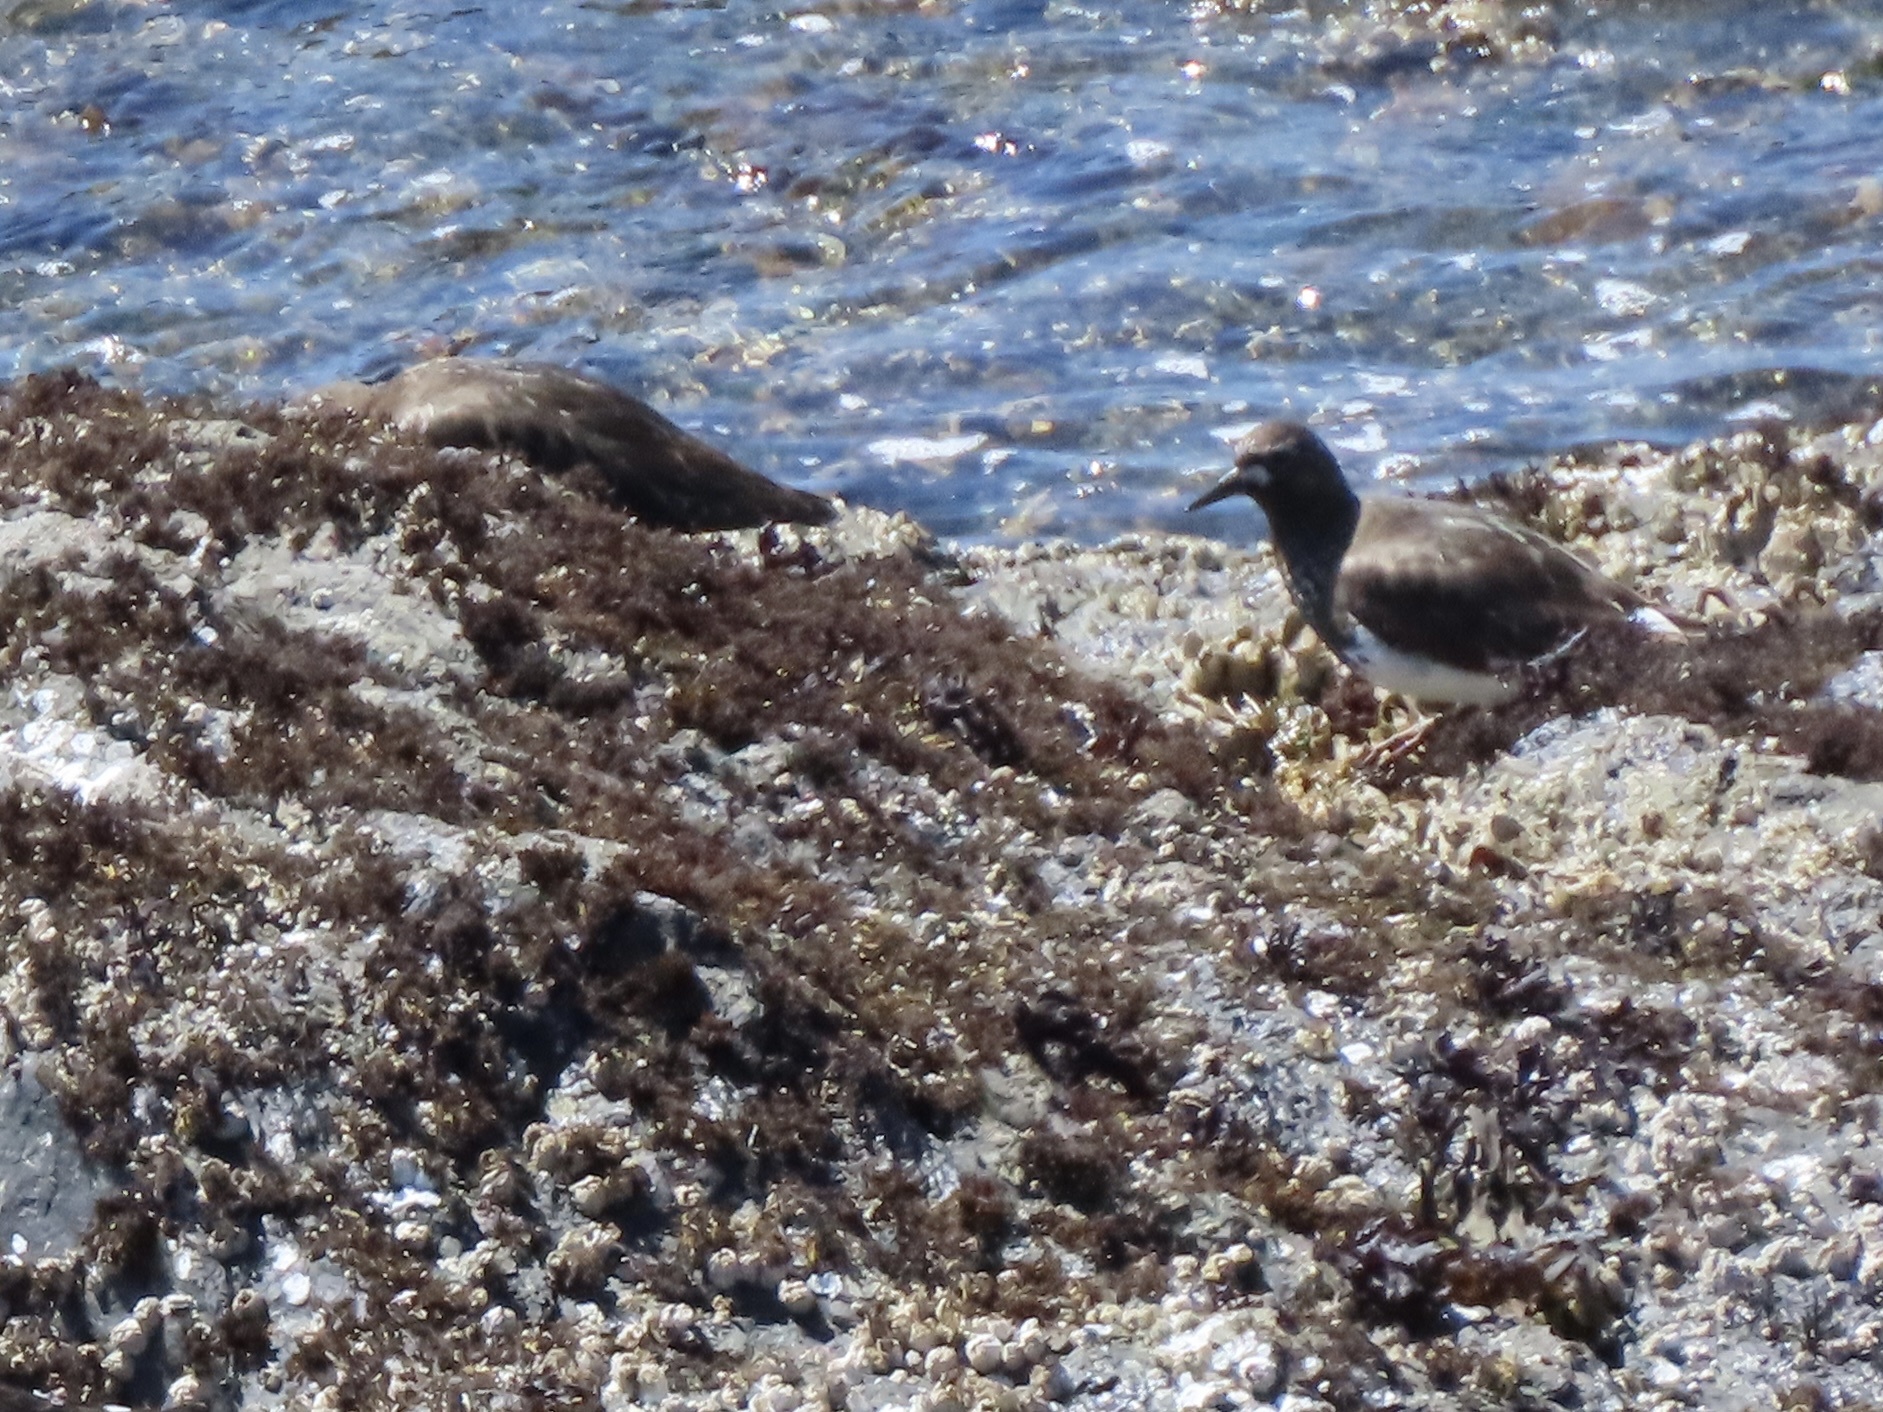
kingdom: Animalia
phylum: Chordata
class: Aves
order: Charadriiformes
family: Scolopacidae
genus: Arenaria
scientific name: Arenaria melanocephala
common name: Black turnstone
